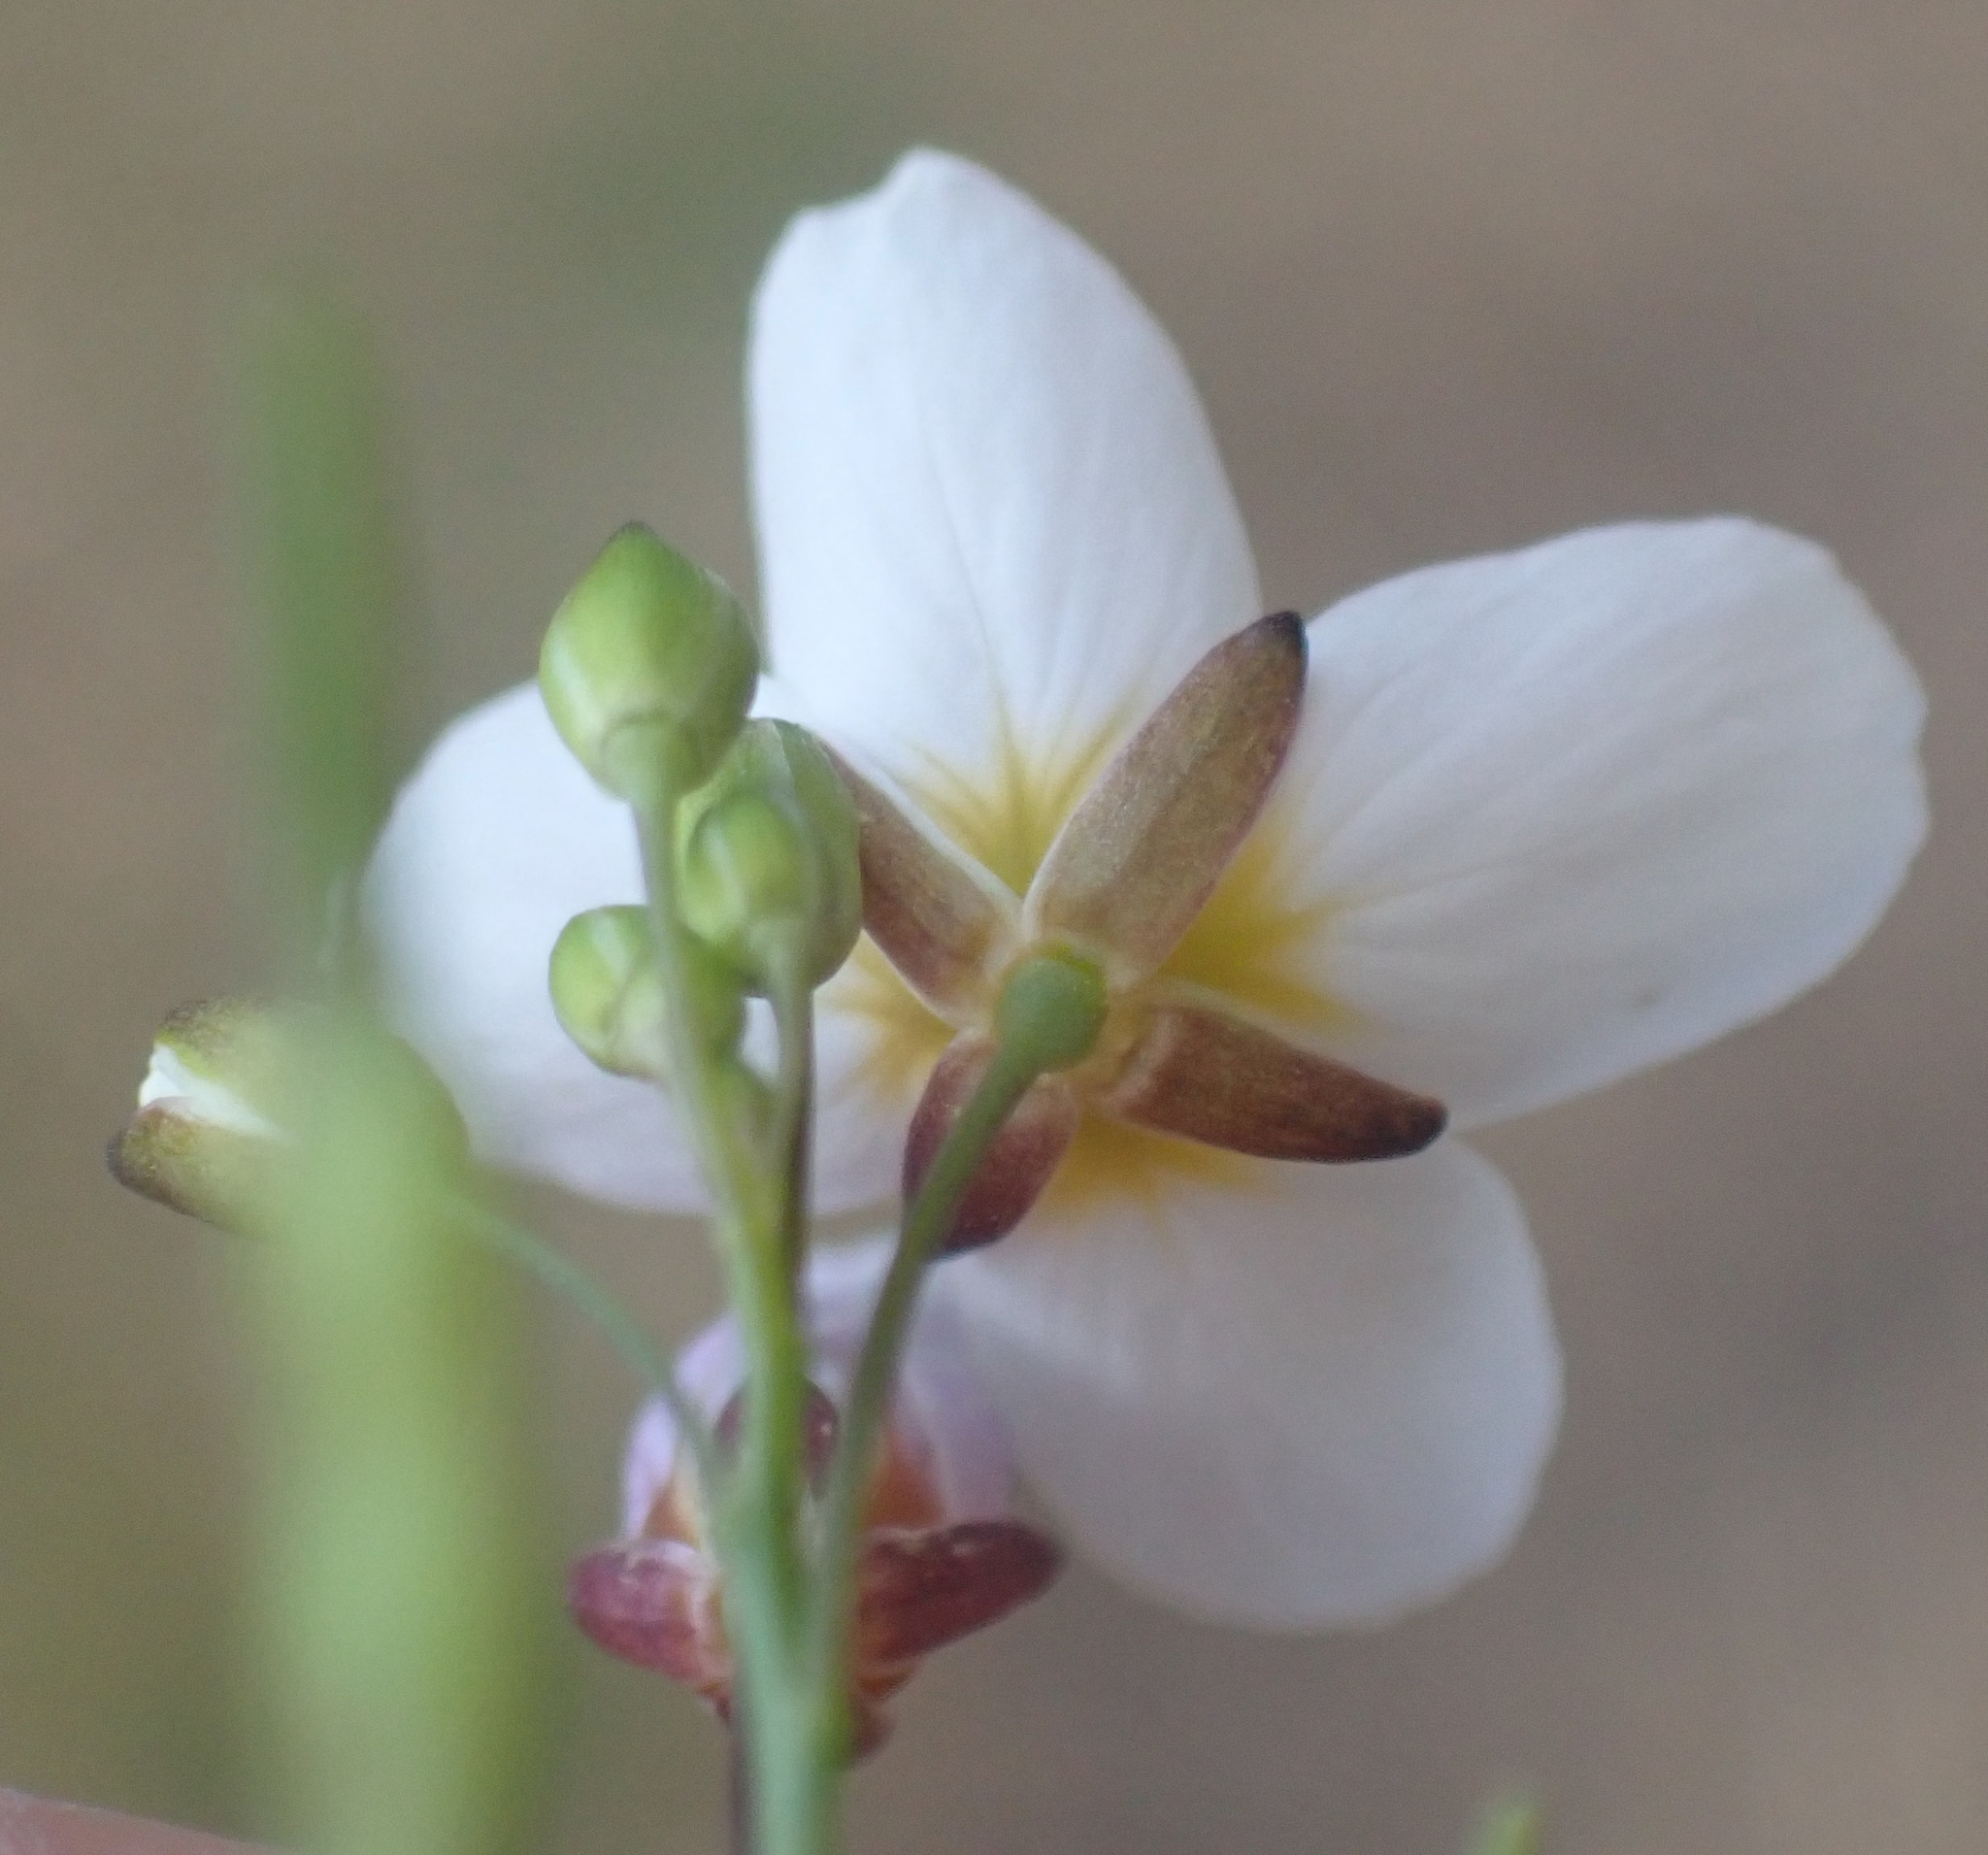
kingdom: Plantae
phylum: Tracheophyta
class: Magnoliopsida
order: Brassicales
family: Brassicaceae
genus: Heliophila
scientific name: Heliophila pendula
